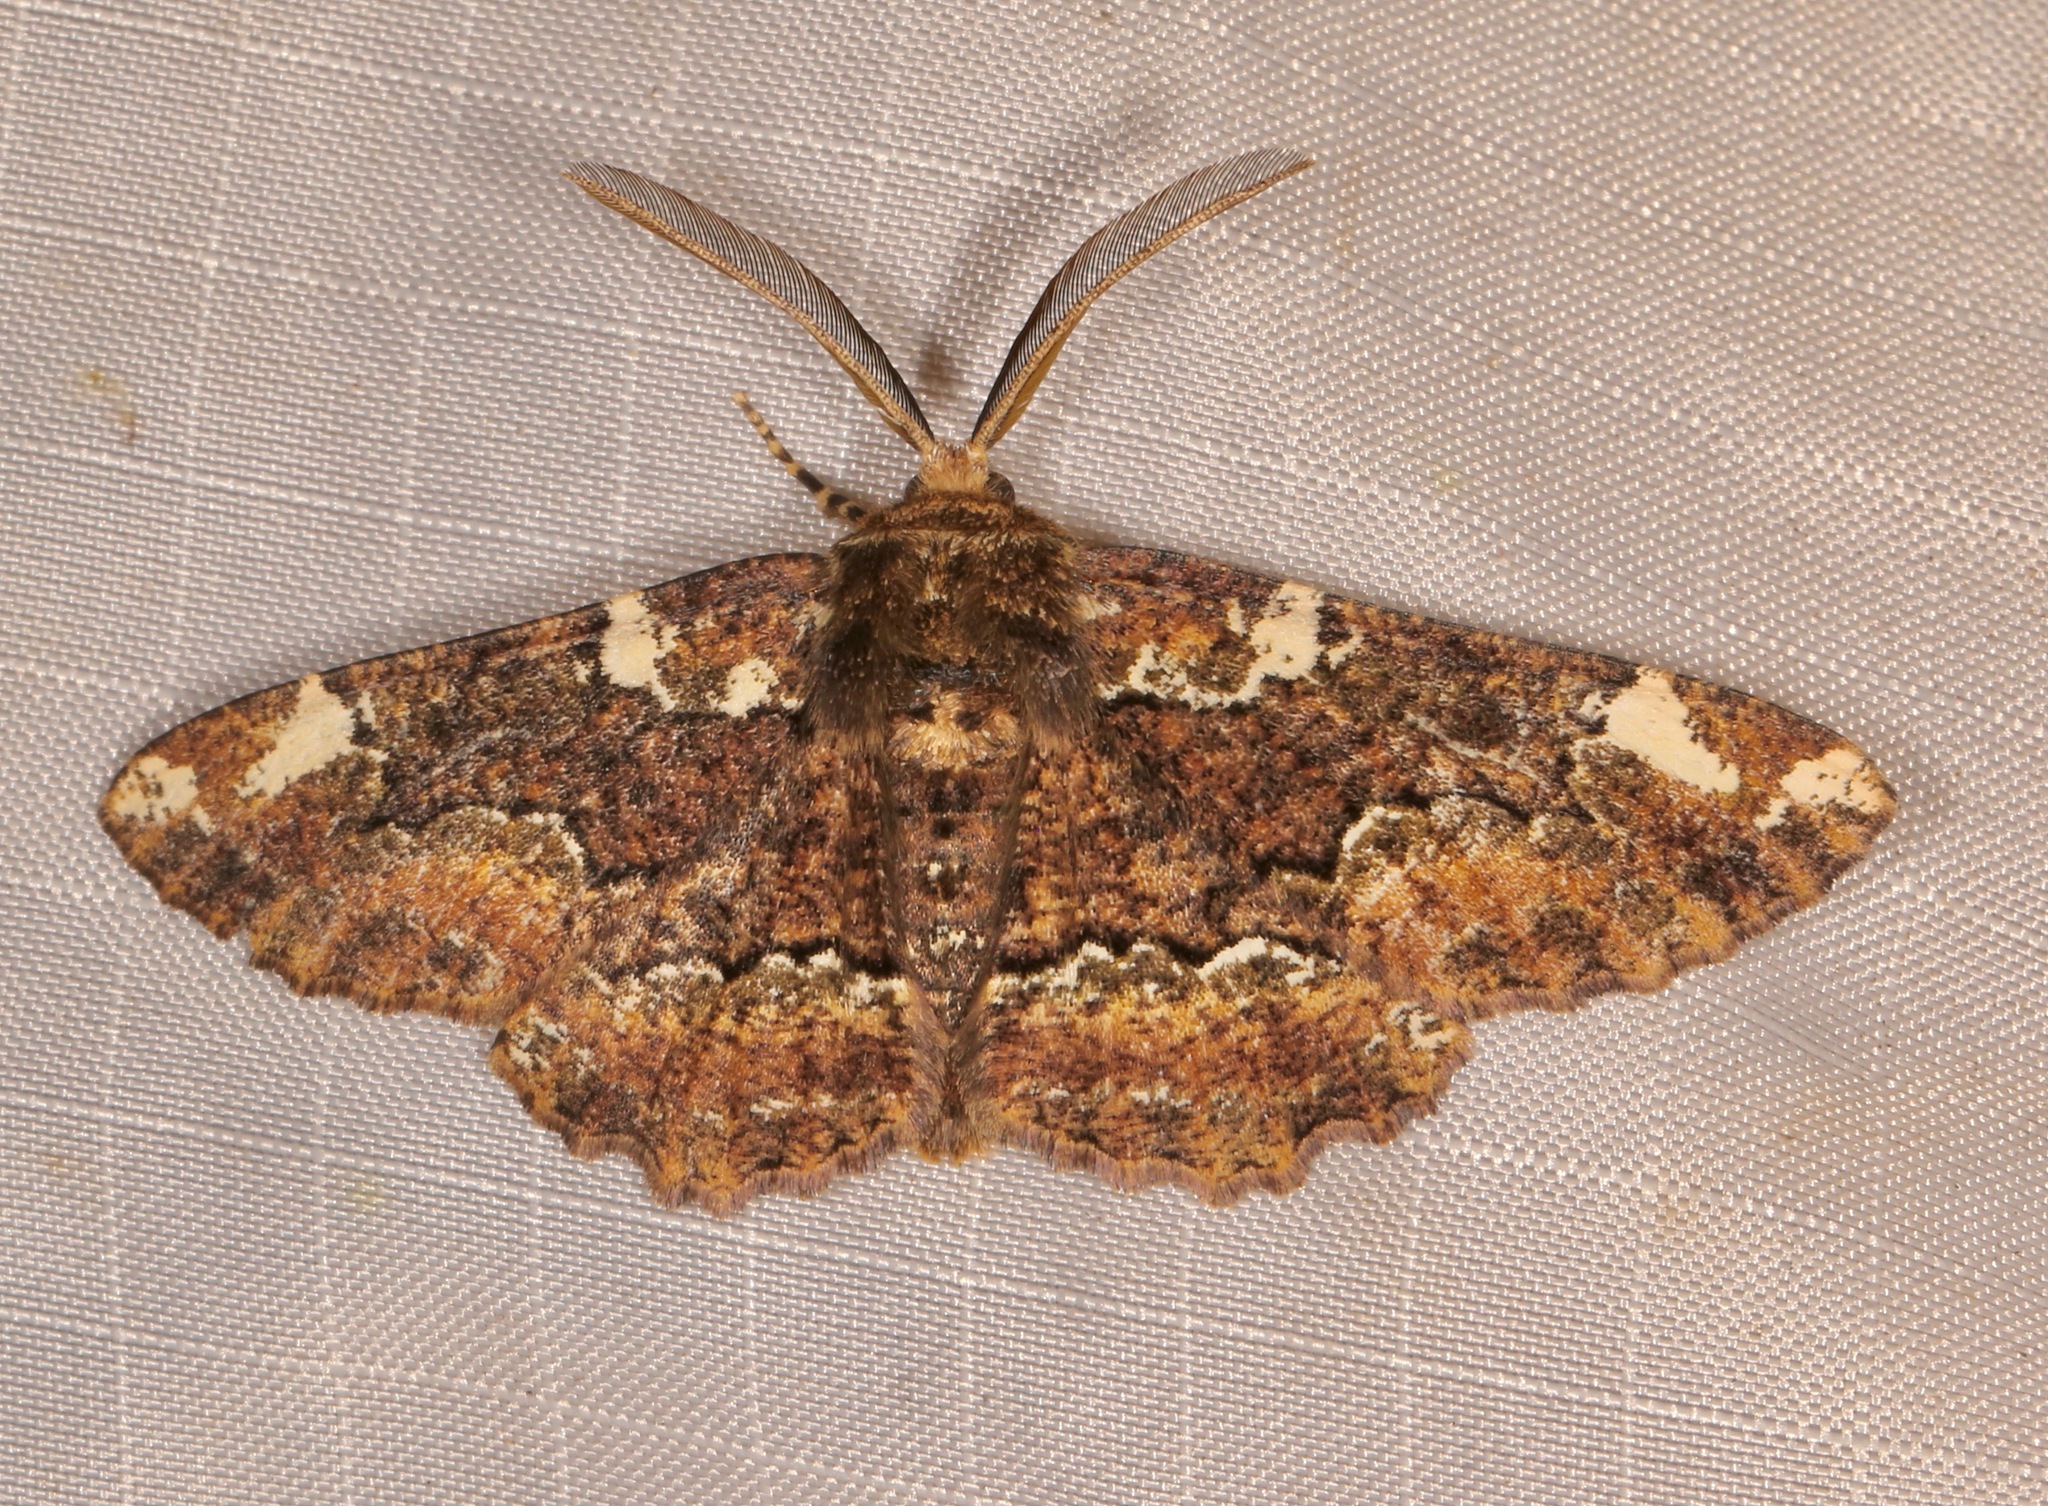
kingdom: Animalia
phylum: Arthropoda
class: Insecta
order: Lepidoptera
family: Geometridae
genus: Phaeoura
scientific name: Phaeoura quernaria
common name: Oak beauty
